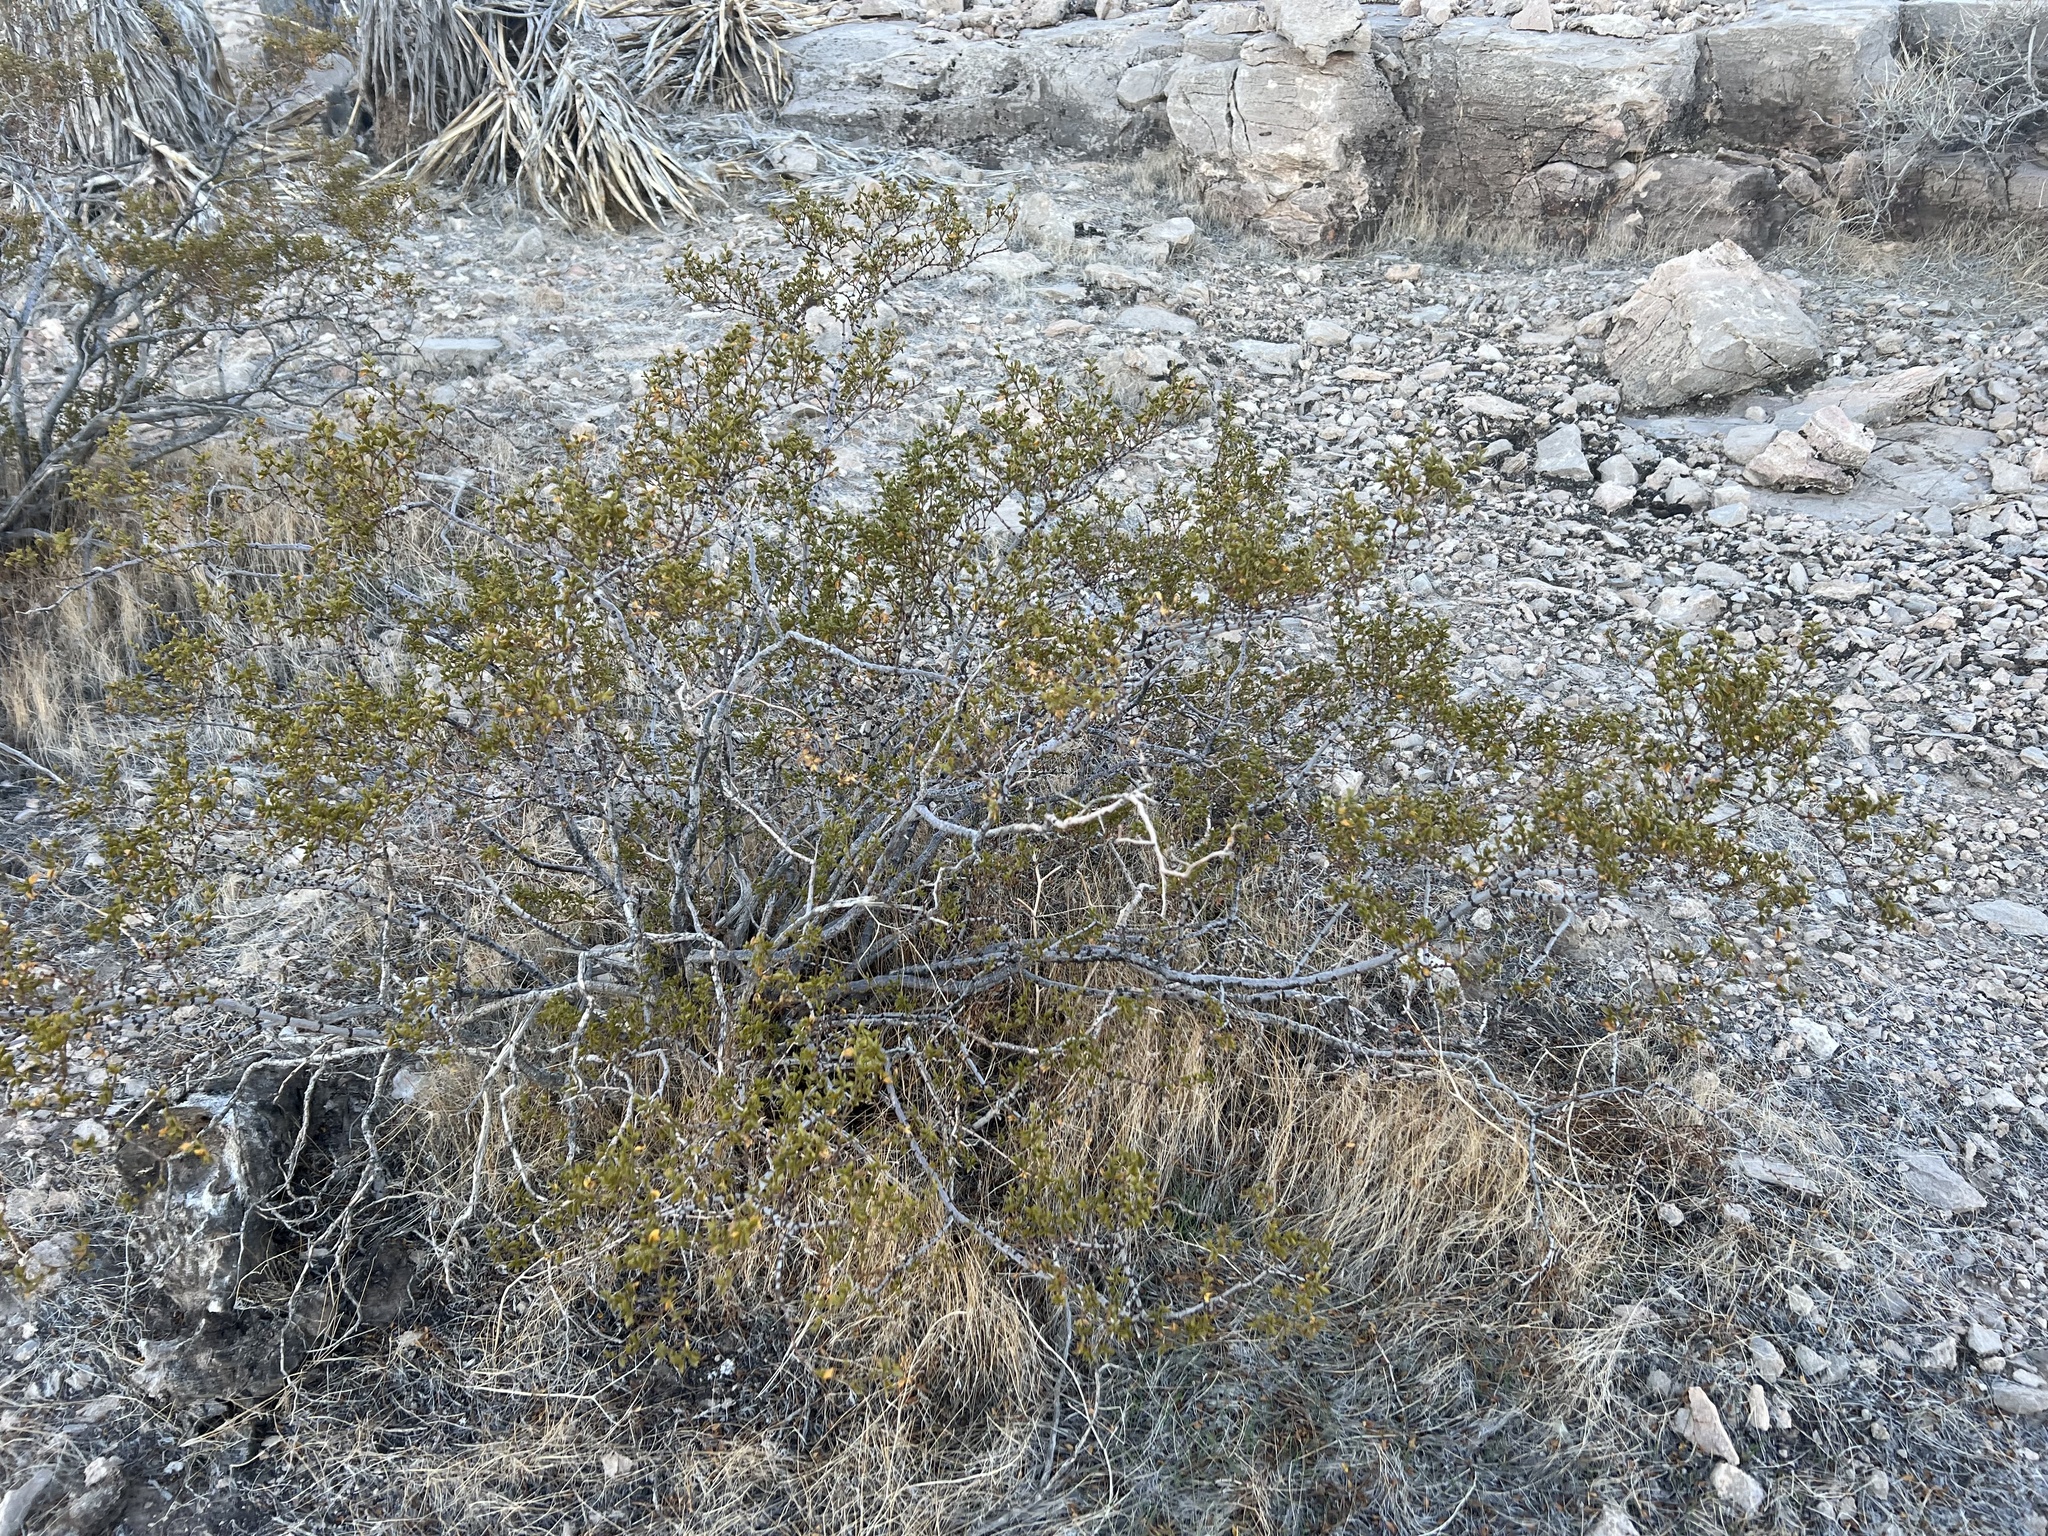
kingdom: Plantae
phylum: Tracheophyta
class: Magnoliopsida
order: Zygophyllales
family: Zygophyllaceae
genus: Larrea
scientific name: Larrea tridentata
